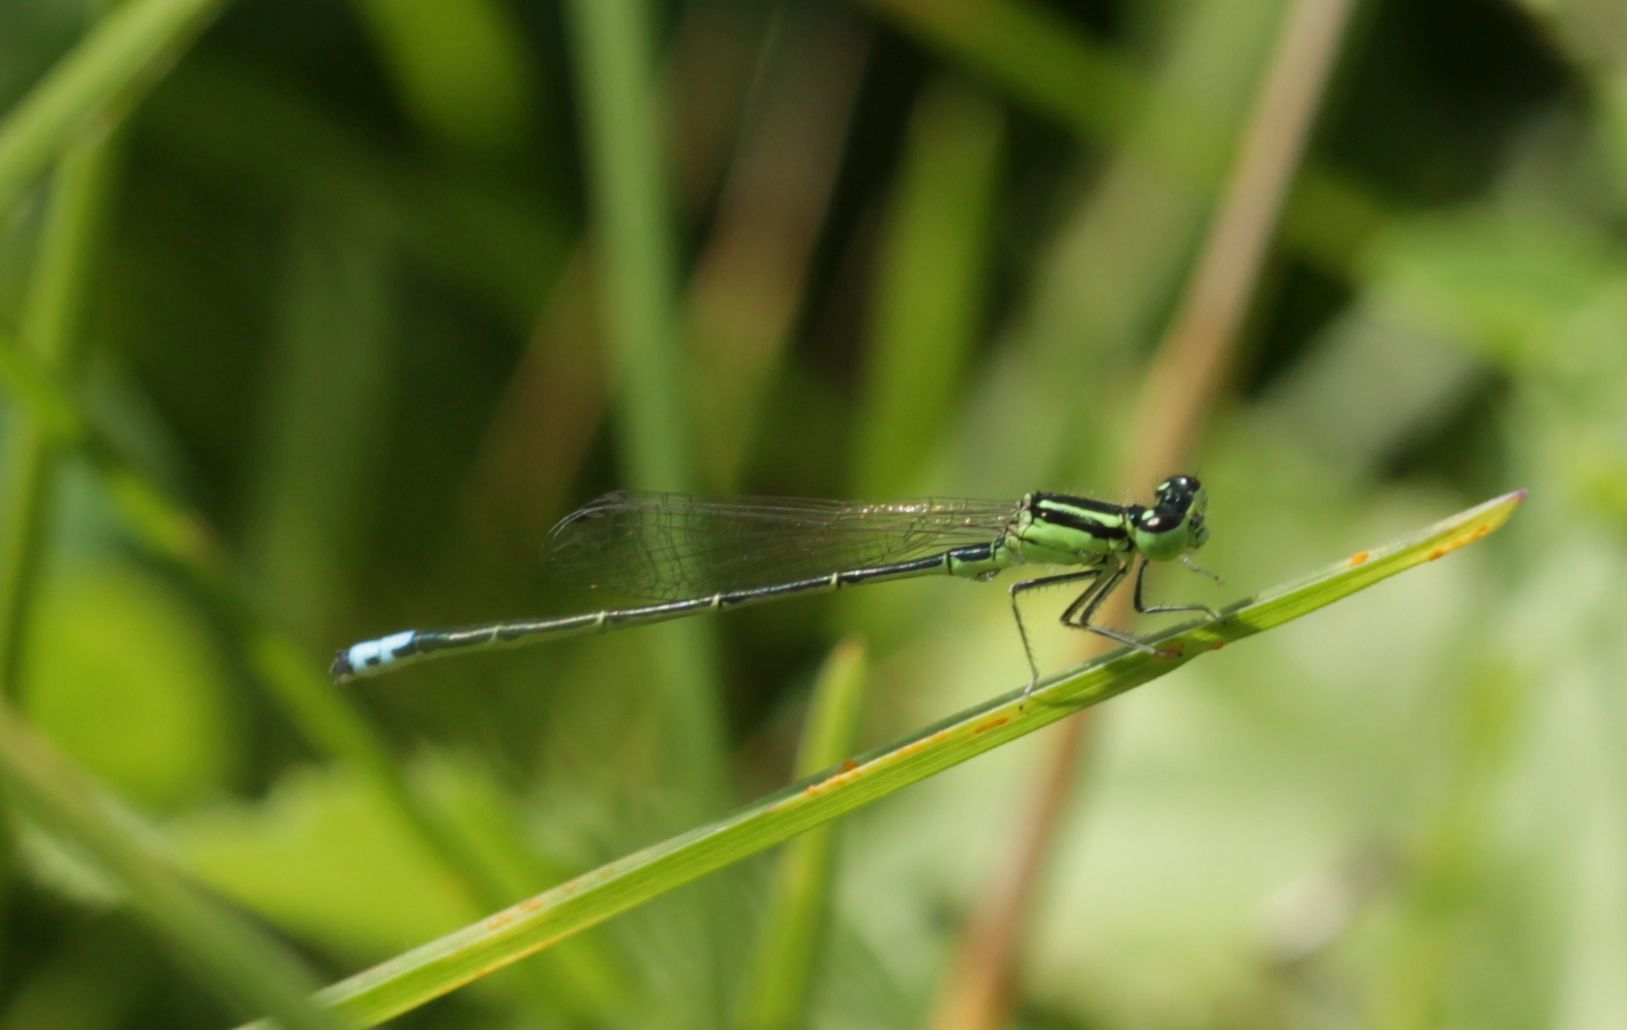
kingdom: Animalia
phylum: Arthropoda
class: Insecta
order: Odonata
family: Coenagrionidae
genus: Ischnura
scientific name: Ischnura verticalis
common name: Eastern forktail
